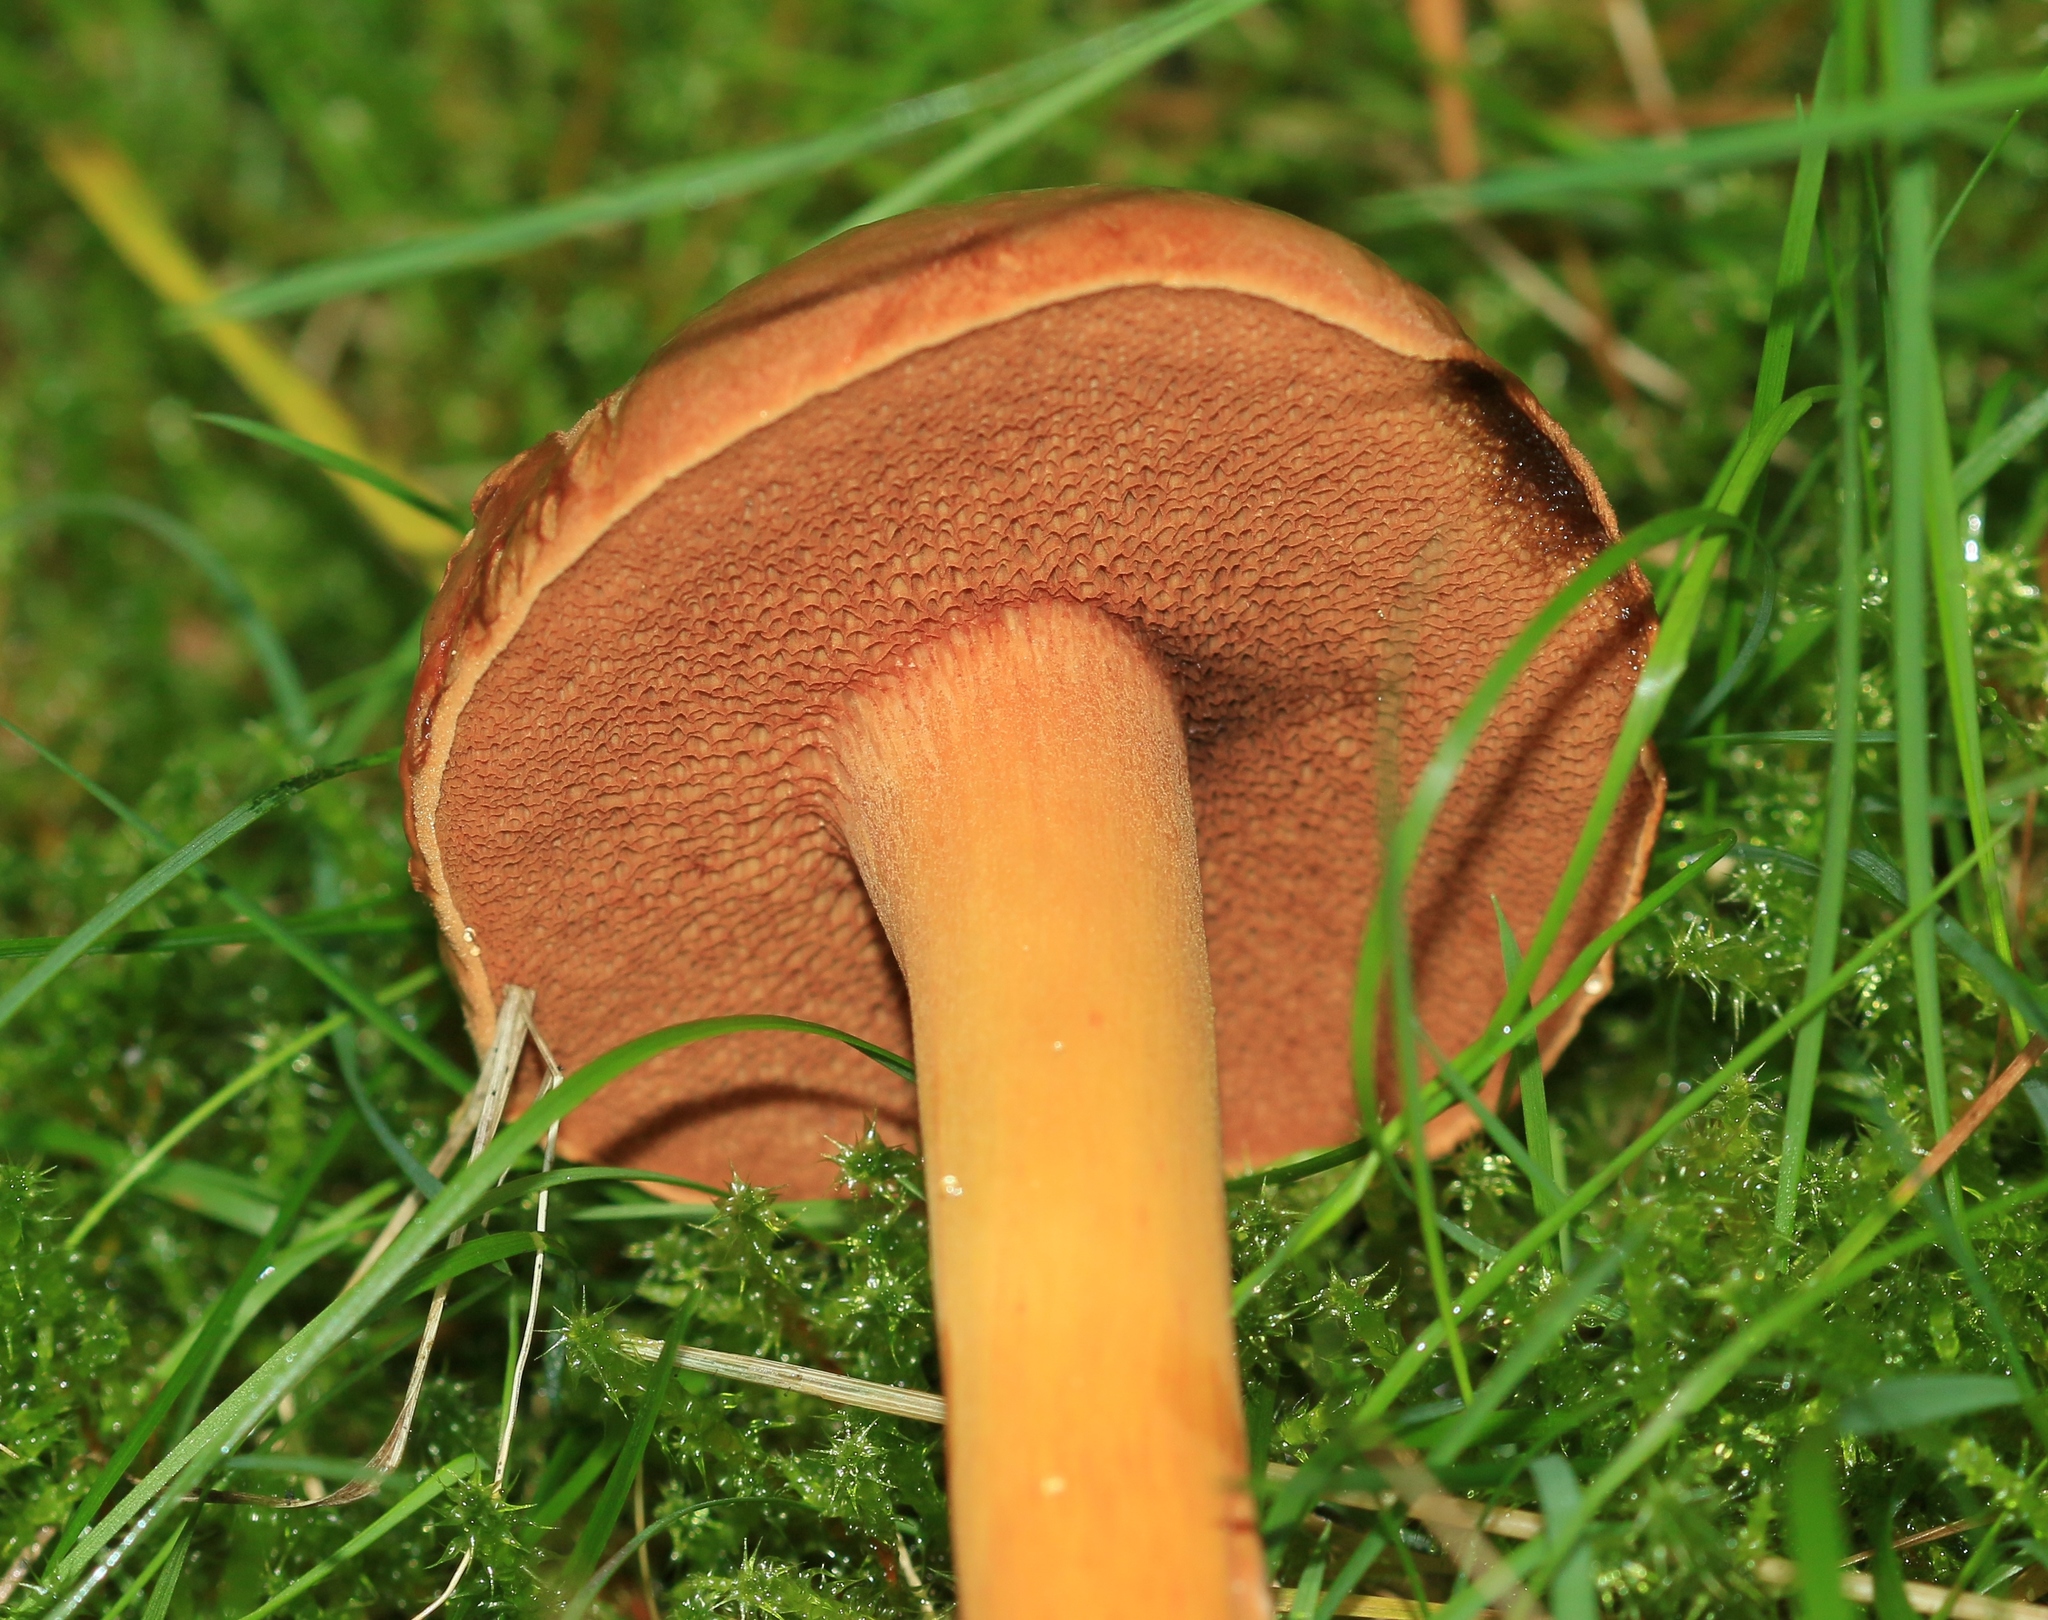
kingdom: Fungi
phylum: Basidiomycota
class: Agaricomycetes
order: Boletales
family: Boletaceae
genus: Chalciporus
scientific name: Chalciporus piperatus
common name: Peppery bolete
